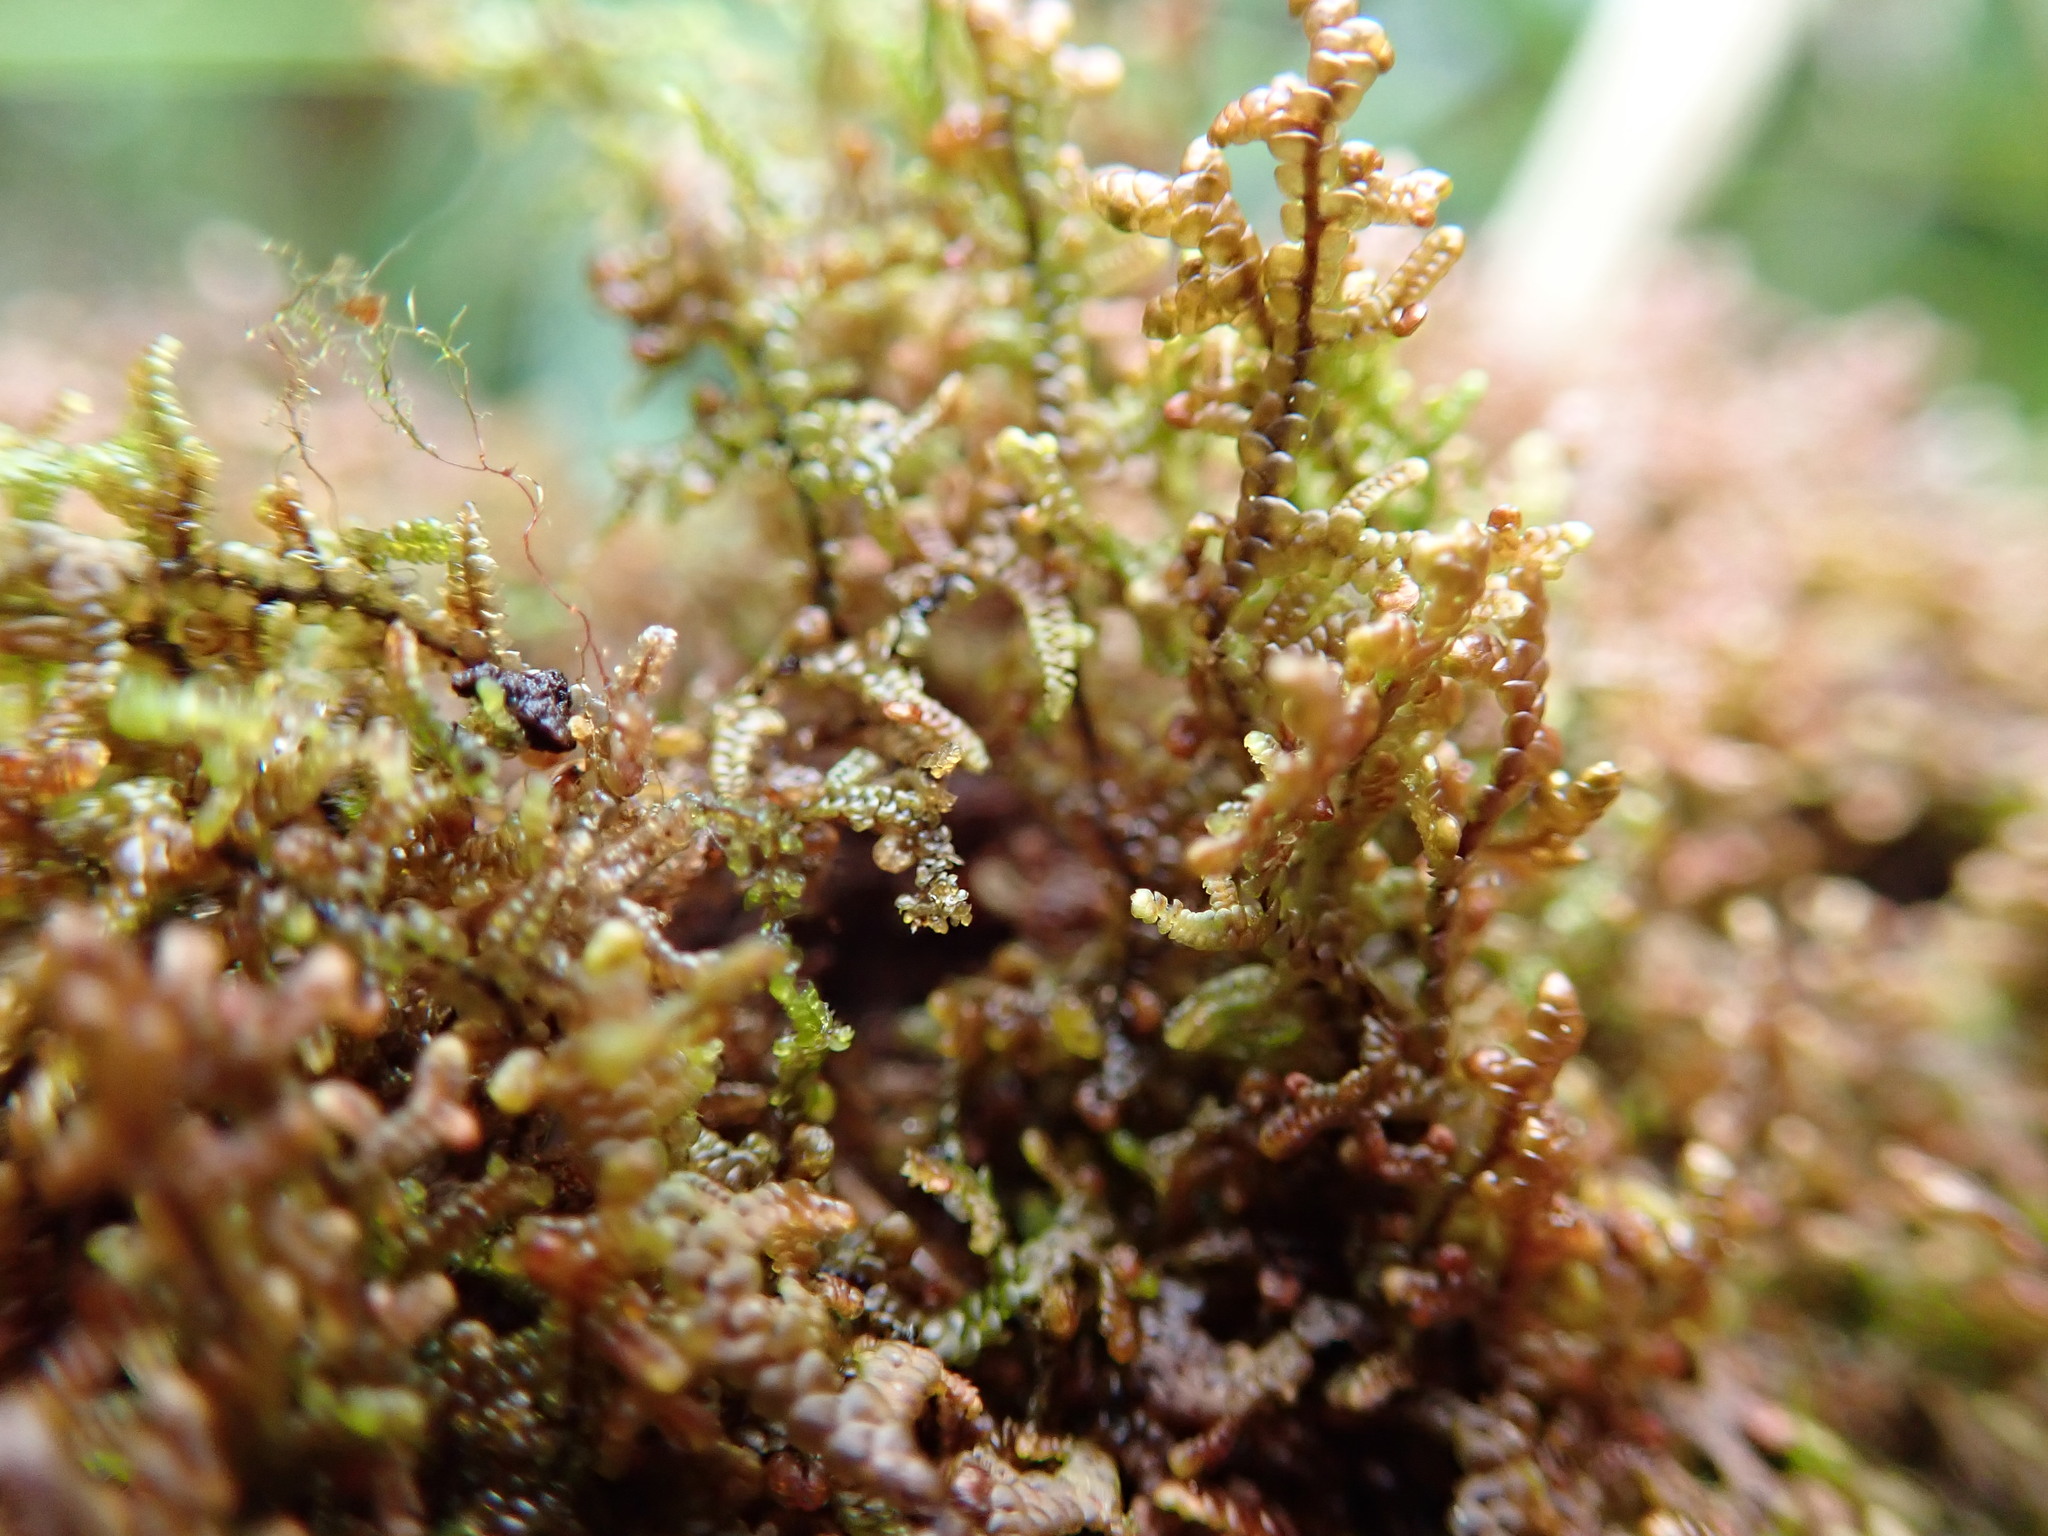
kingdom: Plantae
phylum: Marchantiophyta
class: Jungermanniopsida
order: Porellales
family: Frullaniaceae
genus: Frullania
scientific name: Frullania nisquallensis
